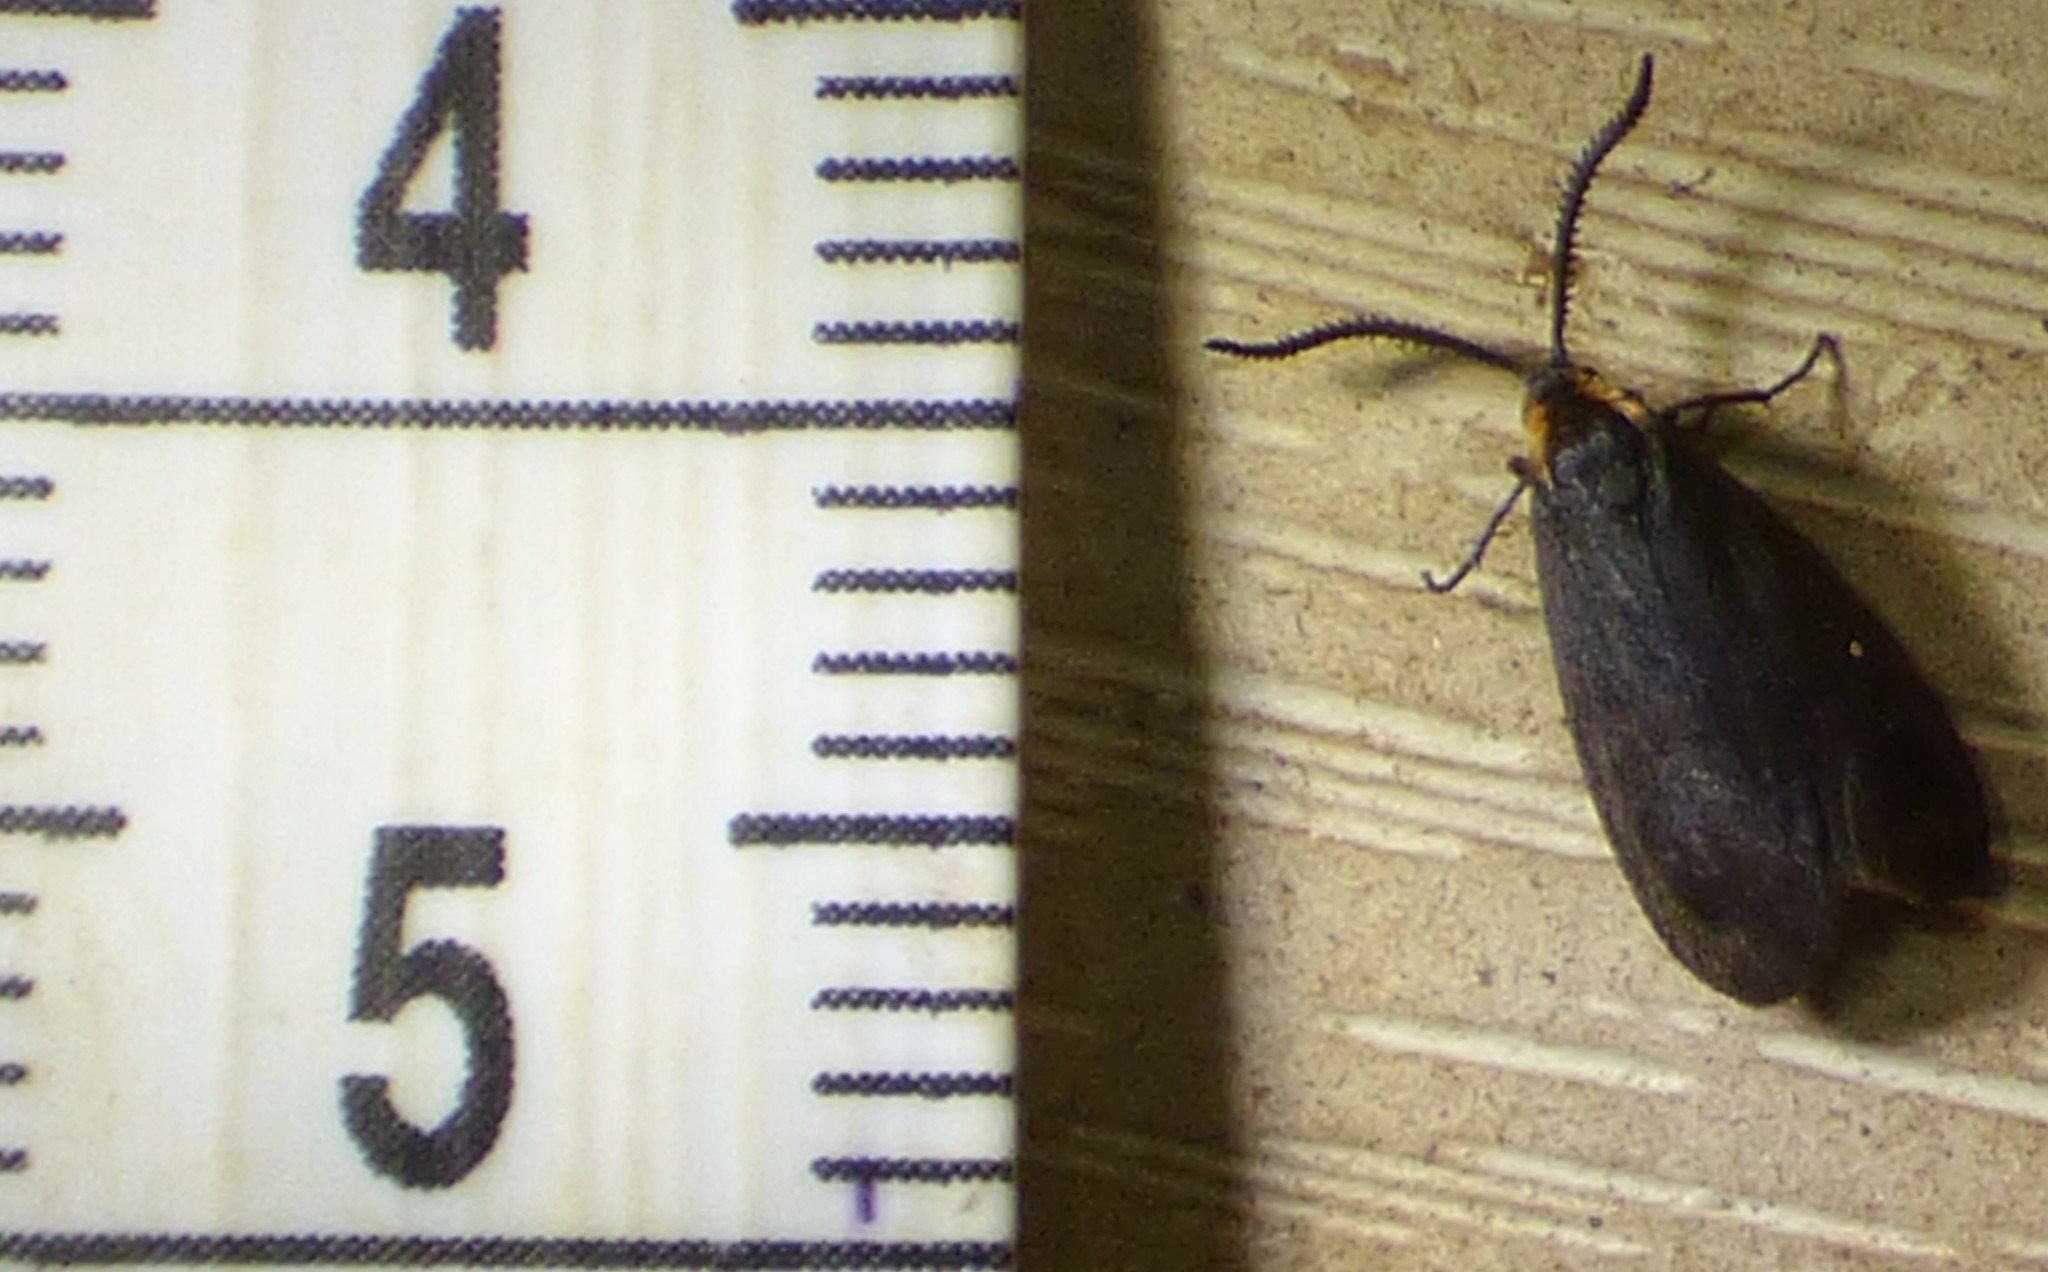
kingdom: Animalia
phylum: Arthropoda
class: Insecta
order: Lepidoptera
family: Zygaenidae
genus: Acoloithus
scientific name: Acoloithus falsarius
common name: Clemens' false skeletonizer
